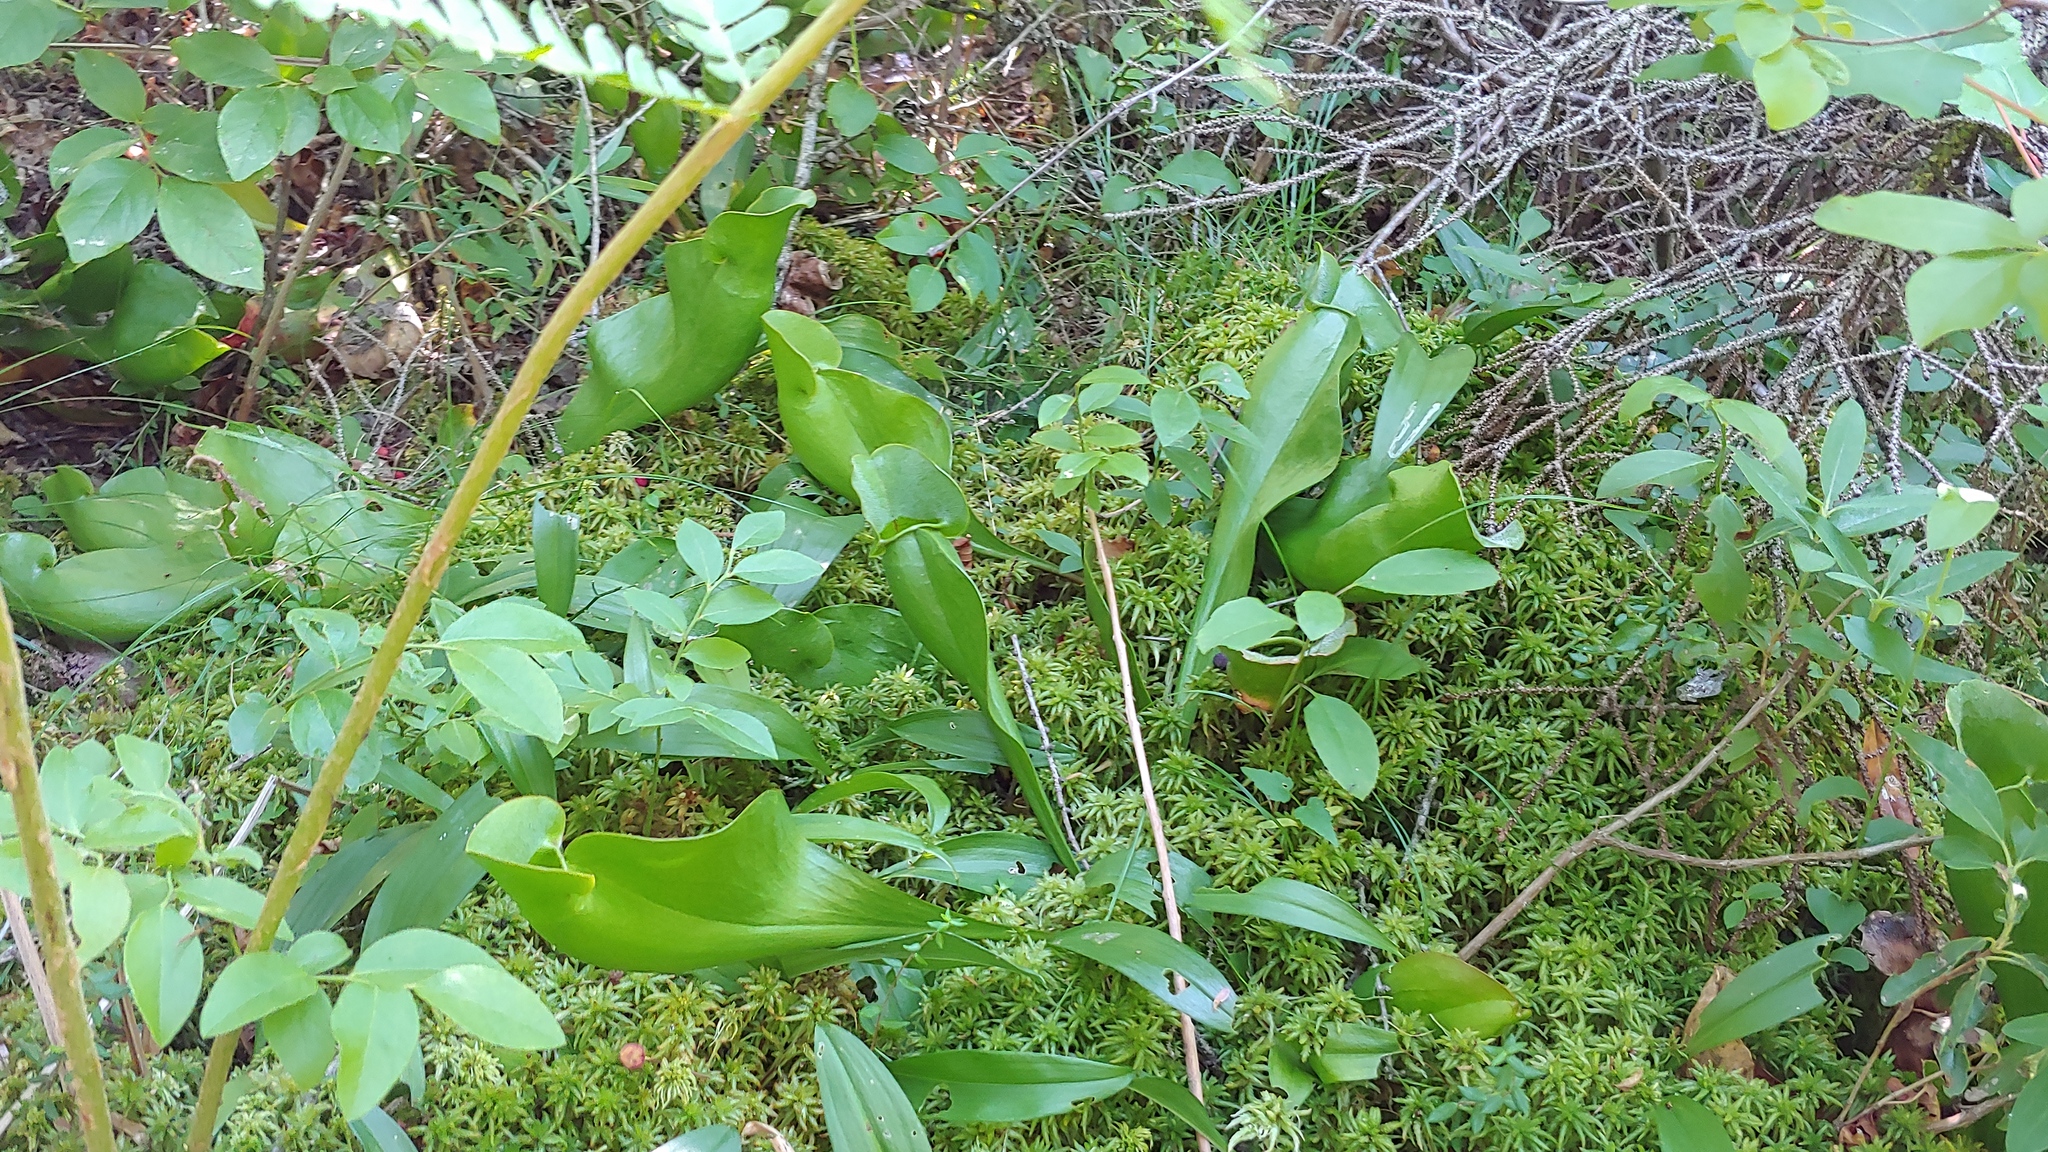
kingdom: Plantae
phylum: Tracheophyta
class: Magnoliopsida
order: Ericales
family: Sarraceniaceae
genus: Sarracenia
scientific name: Sarracenia purpurea
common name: Pitcherplant
